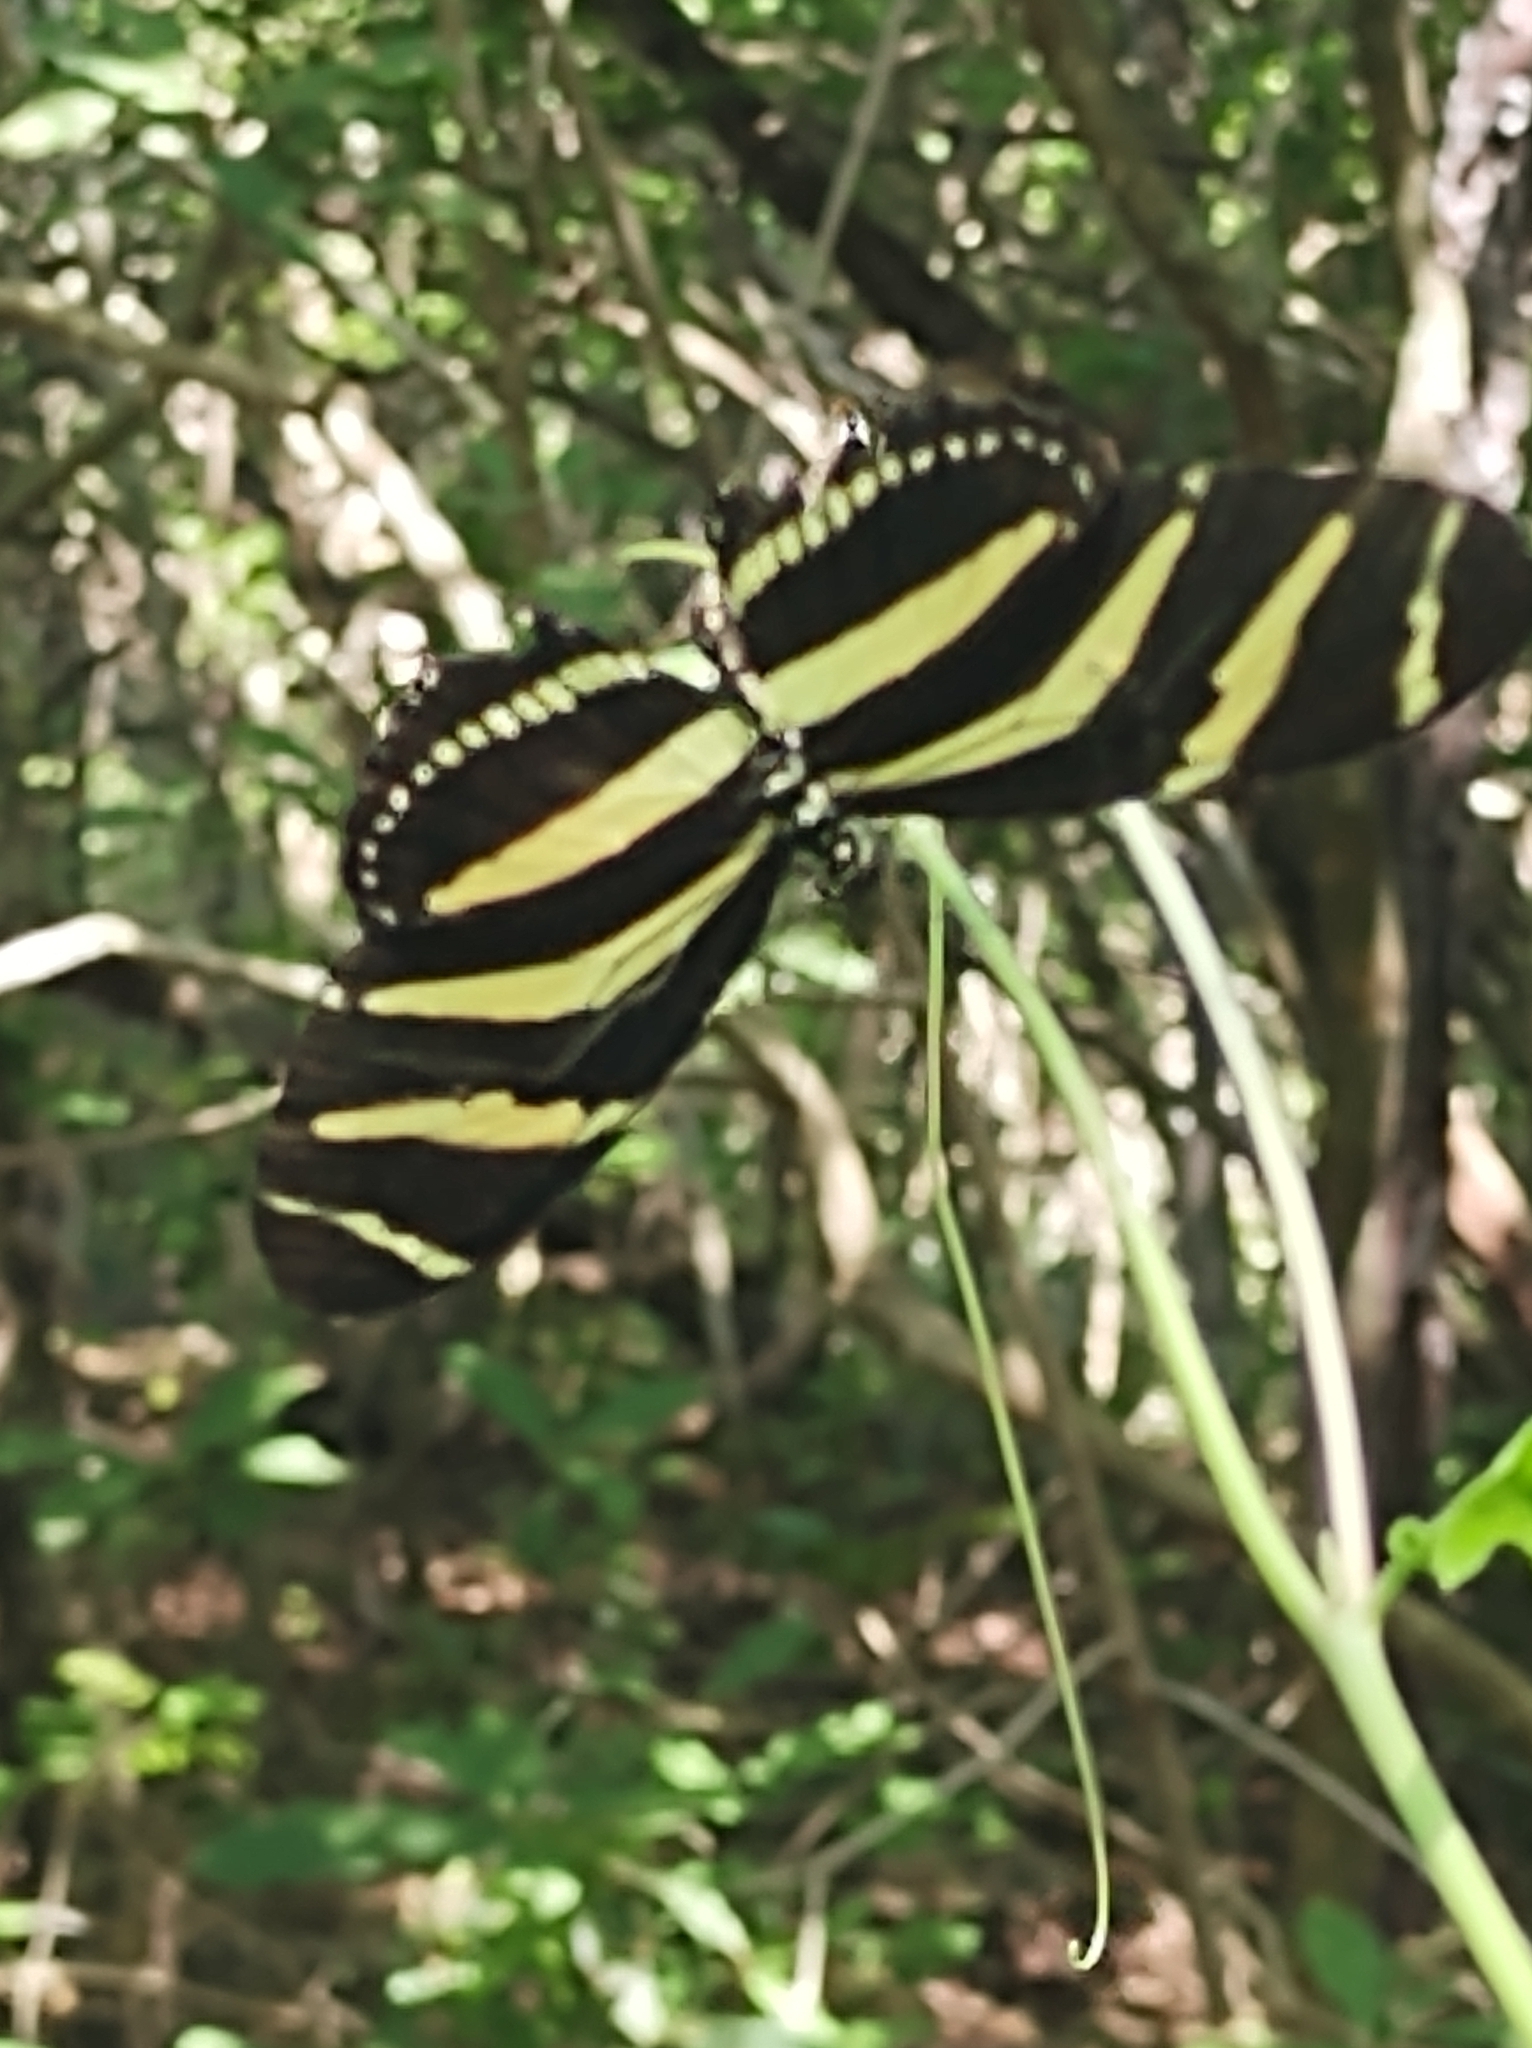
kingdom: Animalia
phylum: Arthropoda
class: Insecta
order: Lepidoptera
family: Nymphalidae
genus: Heliconius
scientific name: Heliconius charithonia
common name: Zebra long wing
